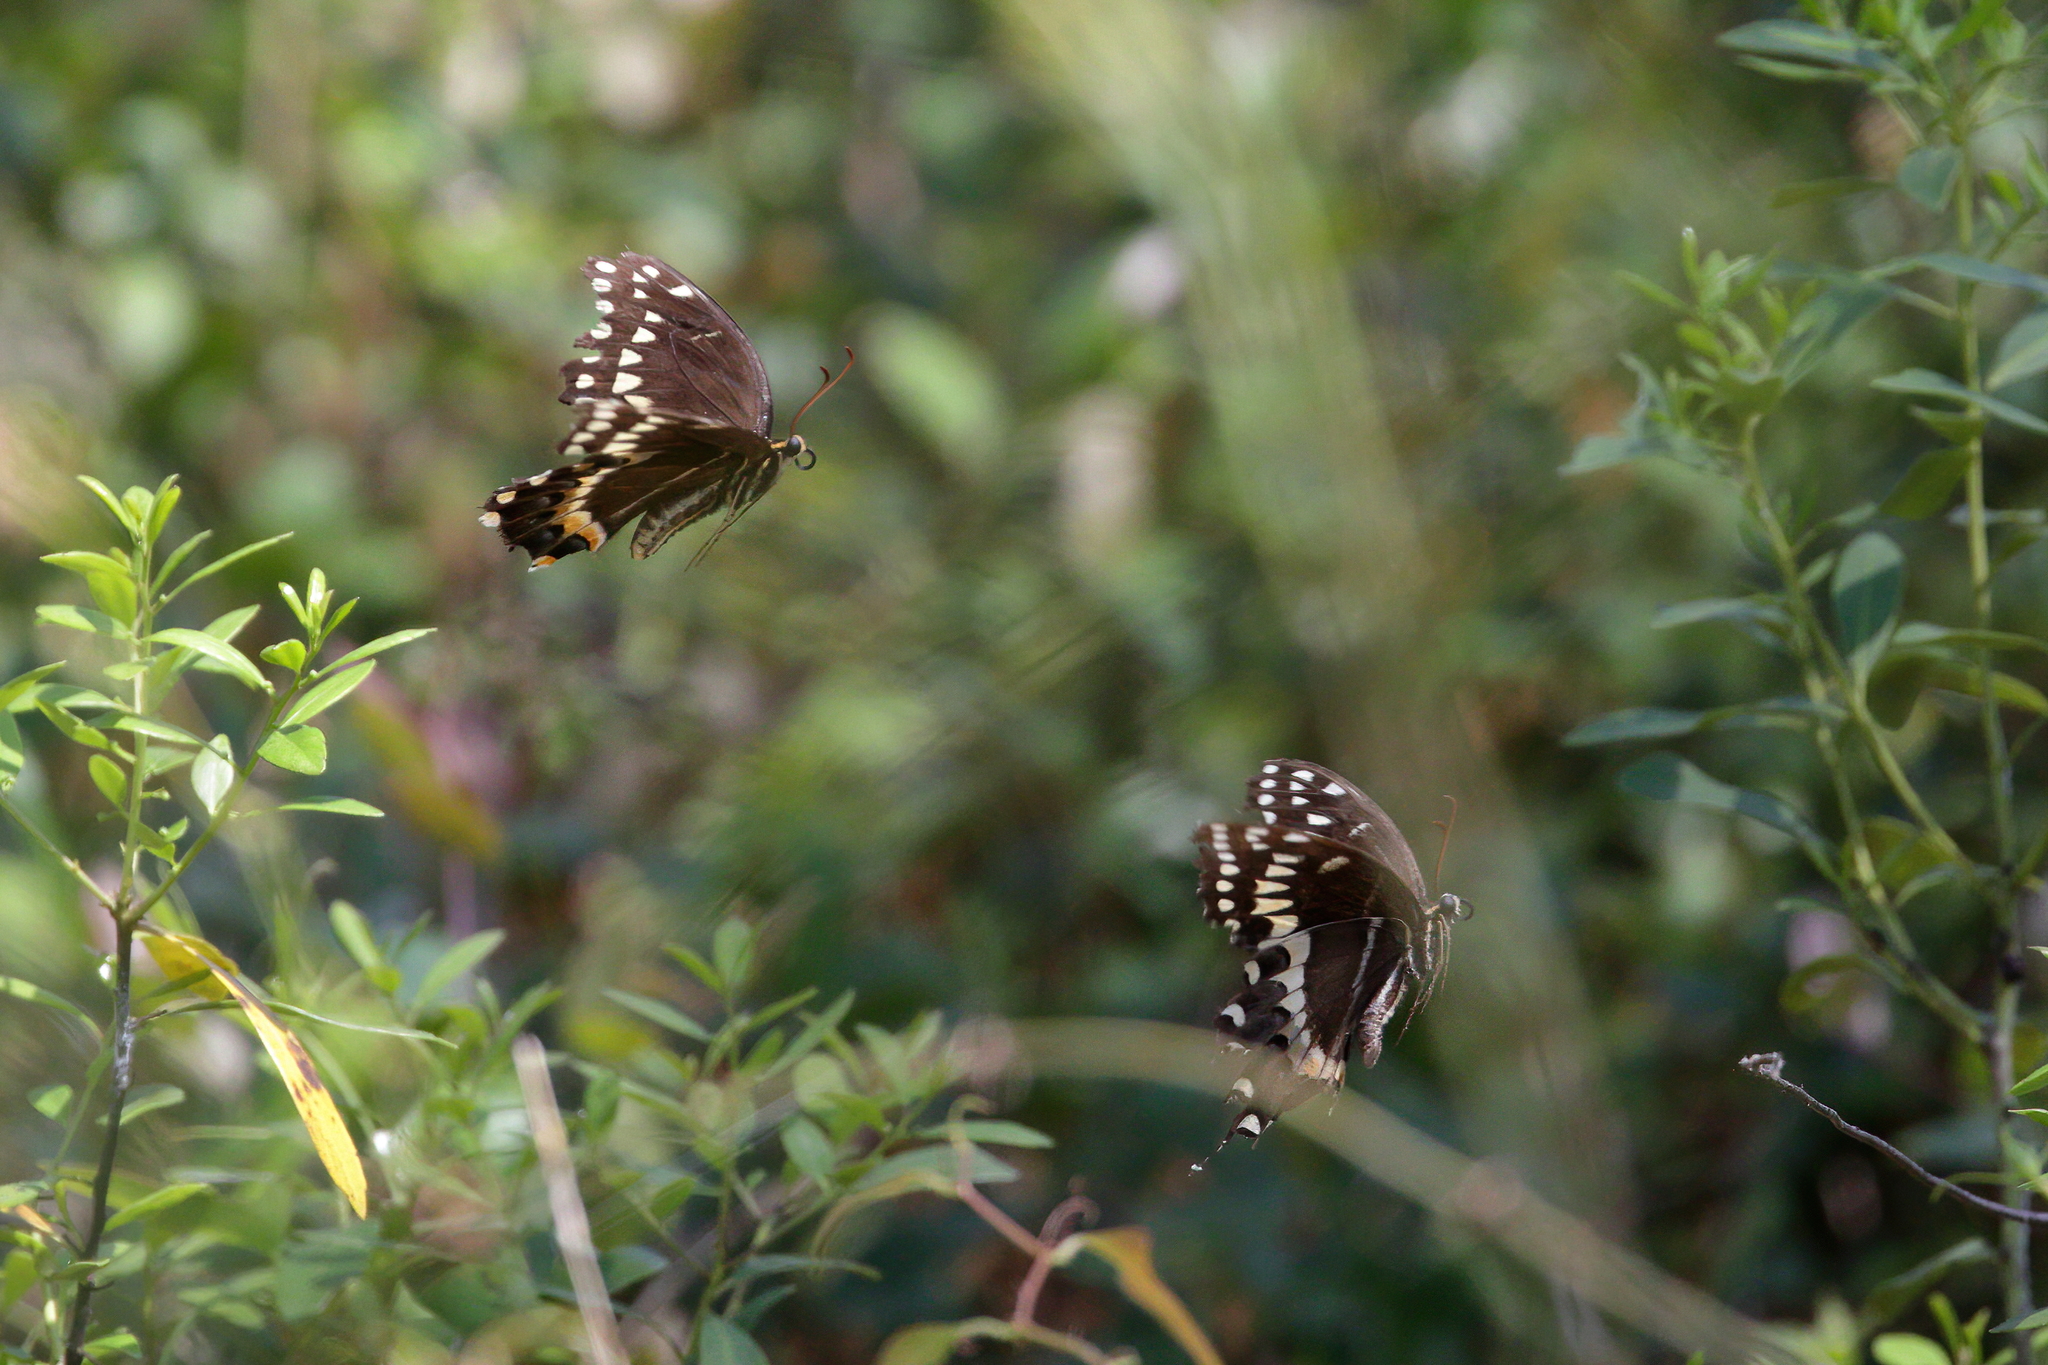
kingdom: Animalia
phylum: Arthropoda
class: Insecta
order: Lepidoptera
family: Papilionidae
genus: Papilio
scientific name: Papilio palamedes
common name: Palamedes swallowtail
